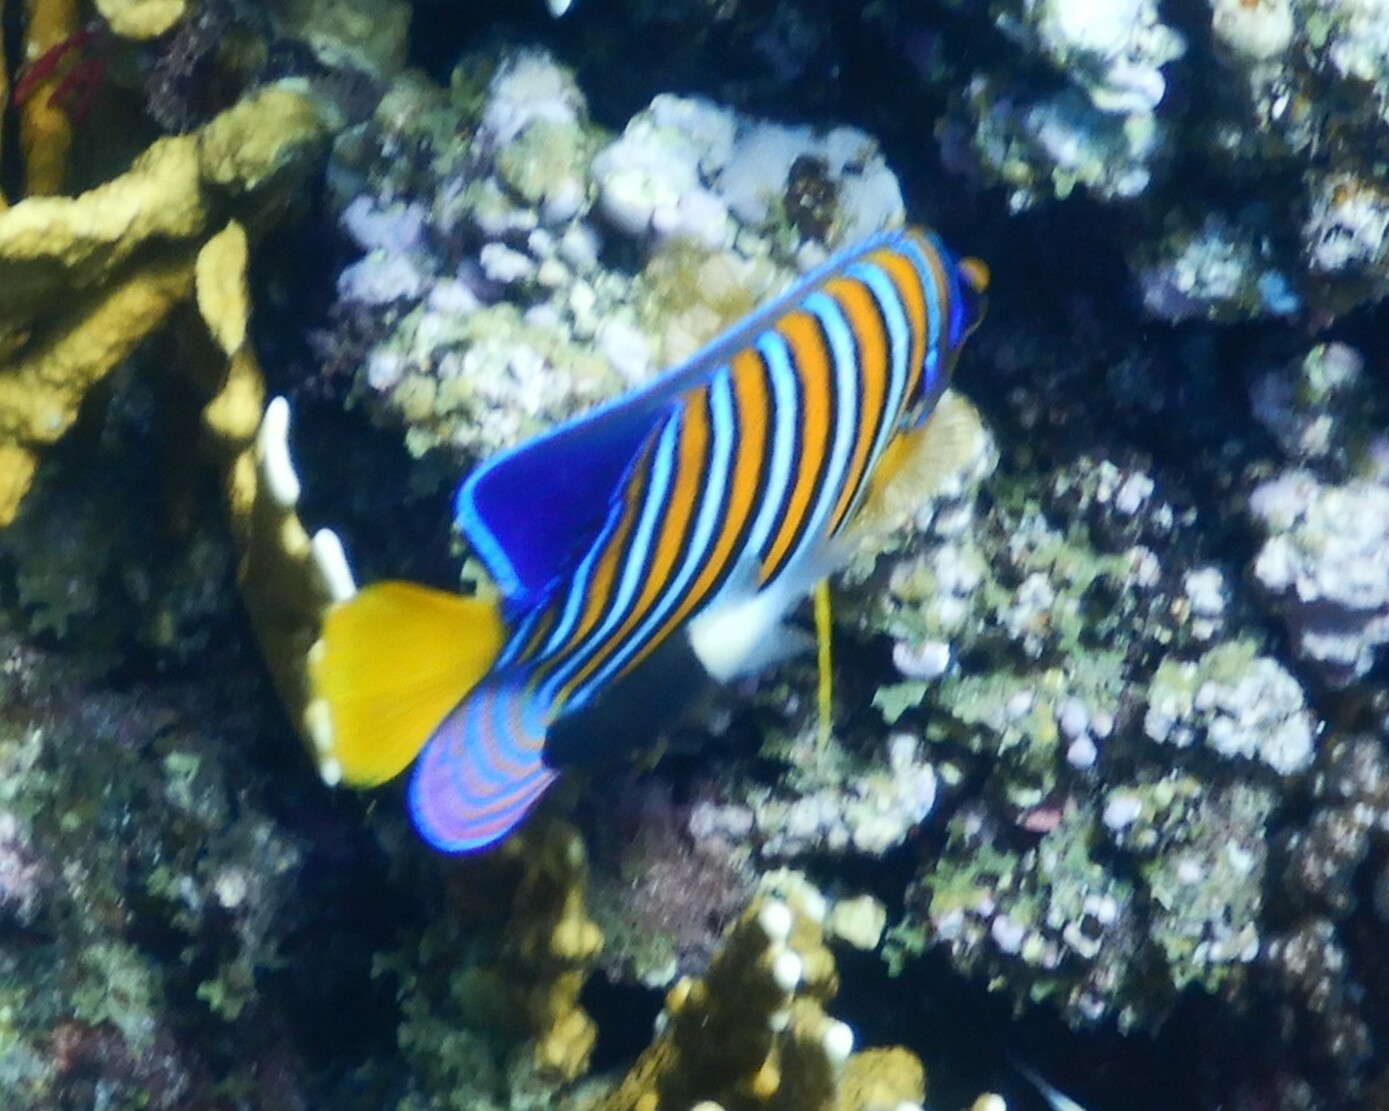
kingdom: Animalia
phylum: Chordata
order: Perciformes
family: Pomacanthidae
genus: Pygoplites
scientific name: Pygoplites diacanthus
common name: Regal angelfish
